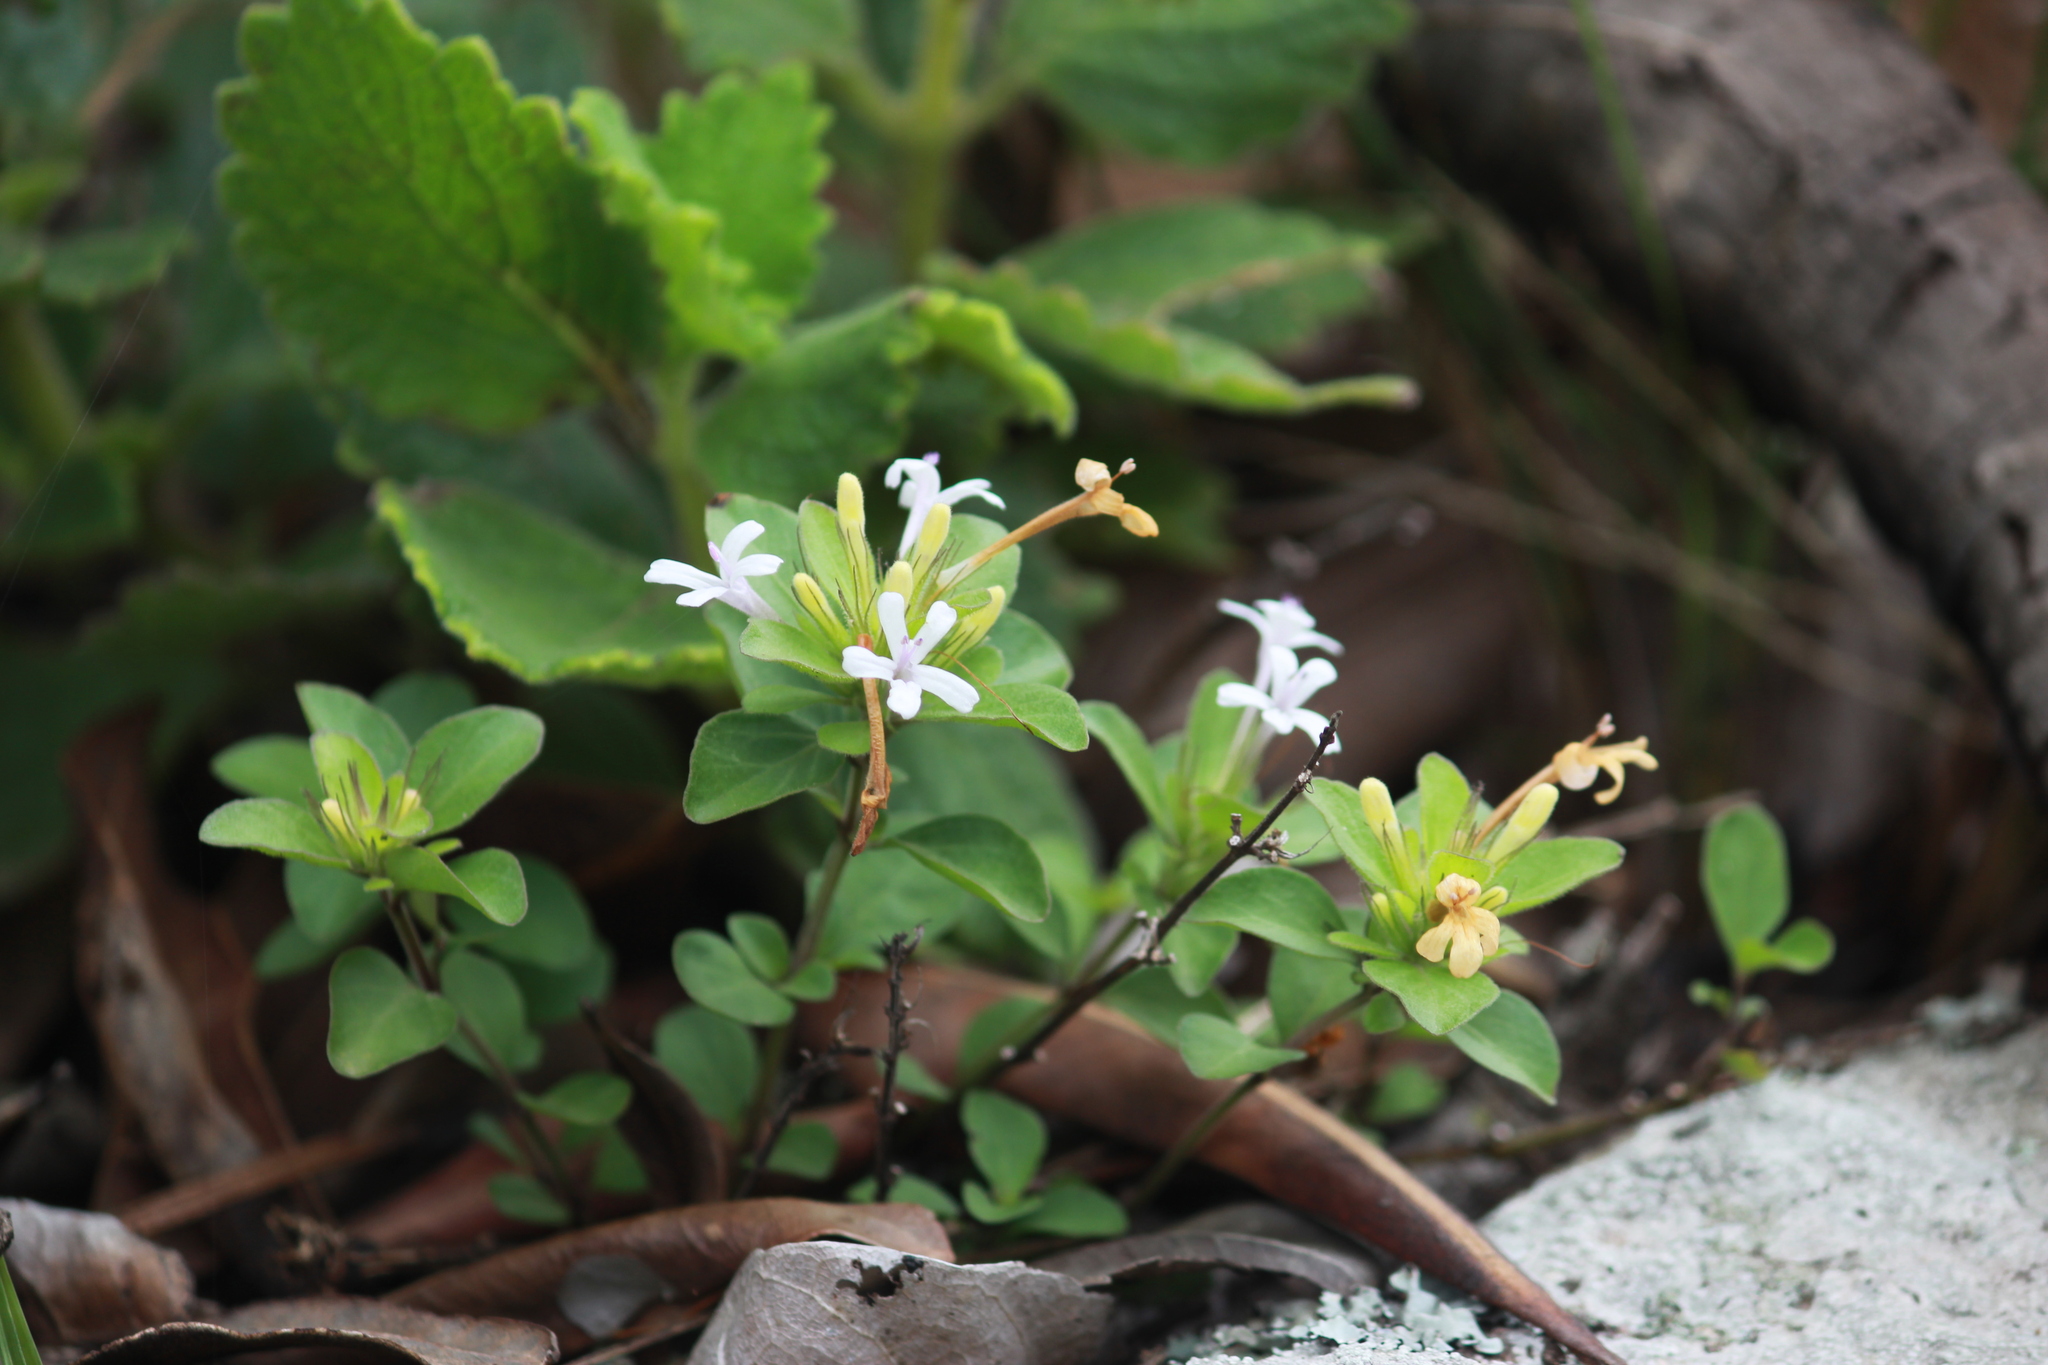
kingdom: Plantae
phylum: Tracheophyta
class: Magnoliopsida
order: Lamiales
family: Acanthaceae
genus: Dyschoriste
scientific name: Dyschoriste setigera
